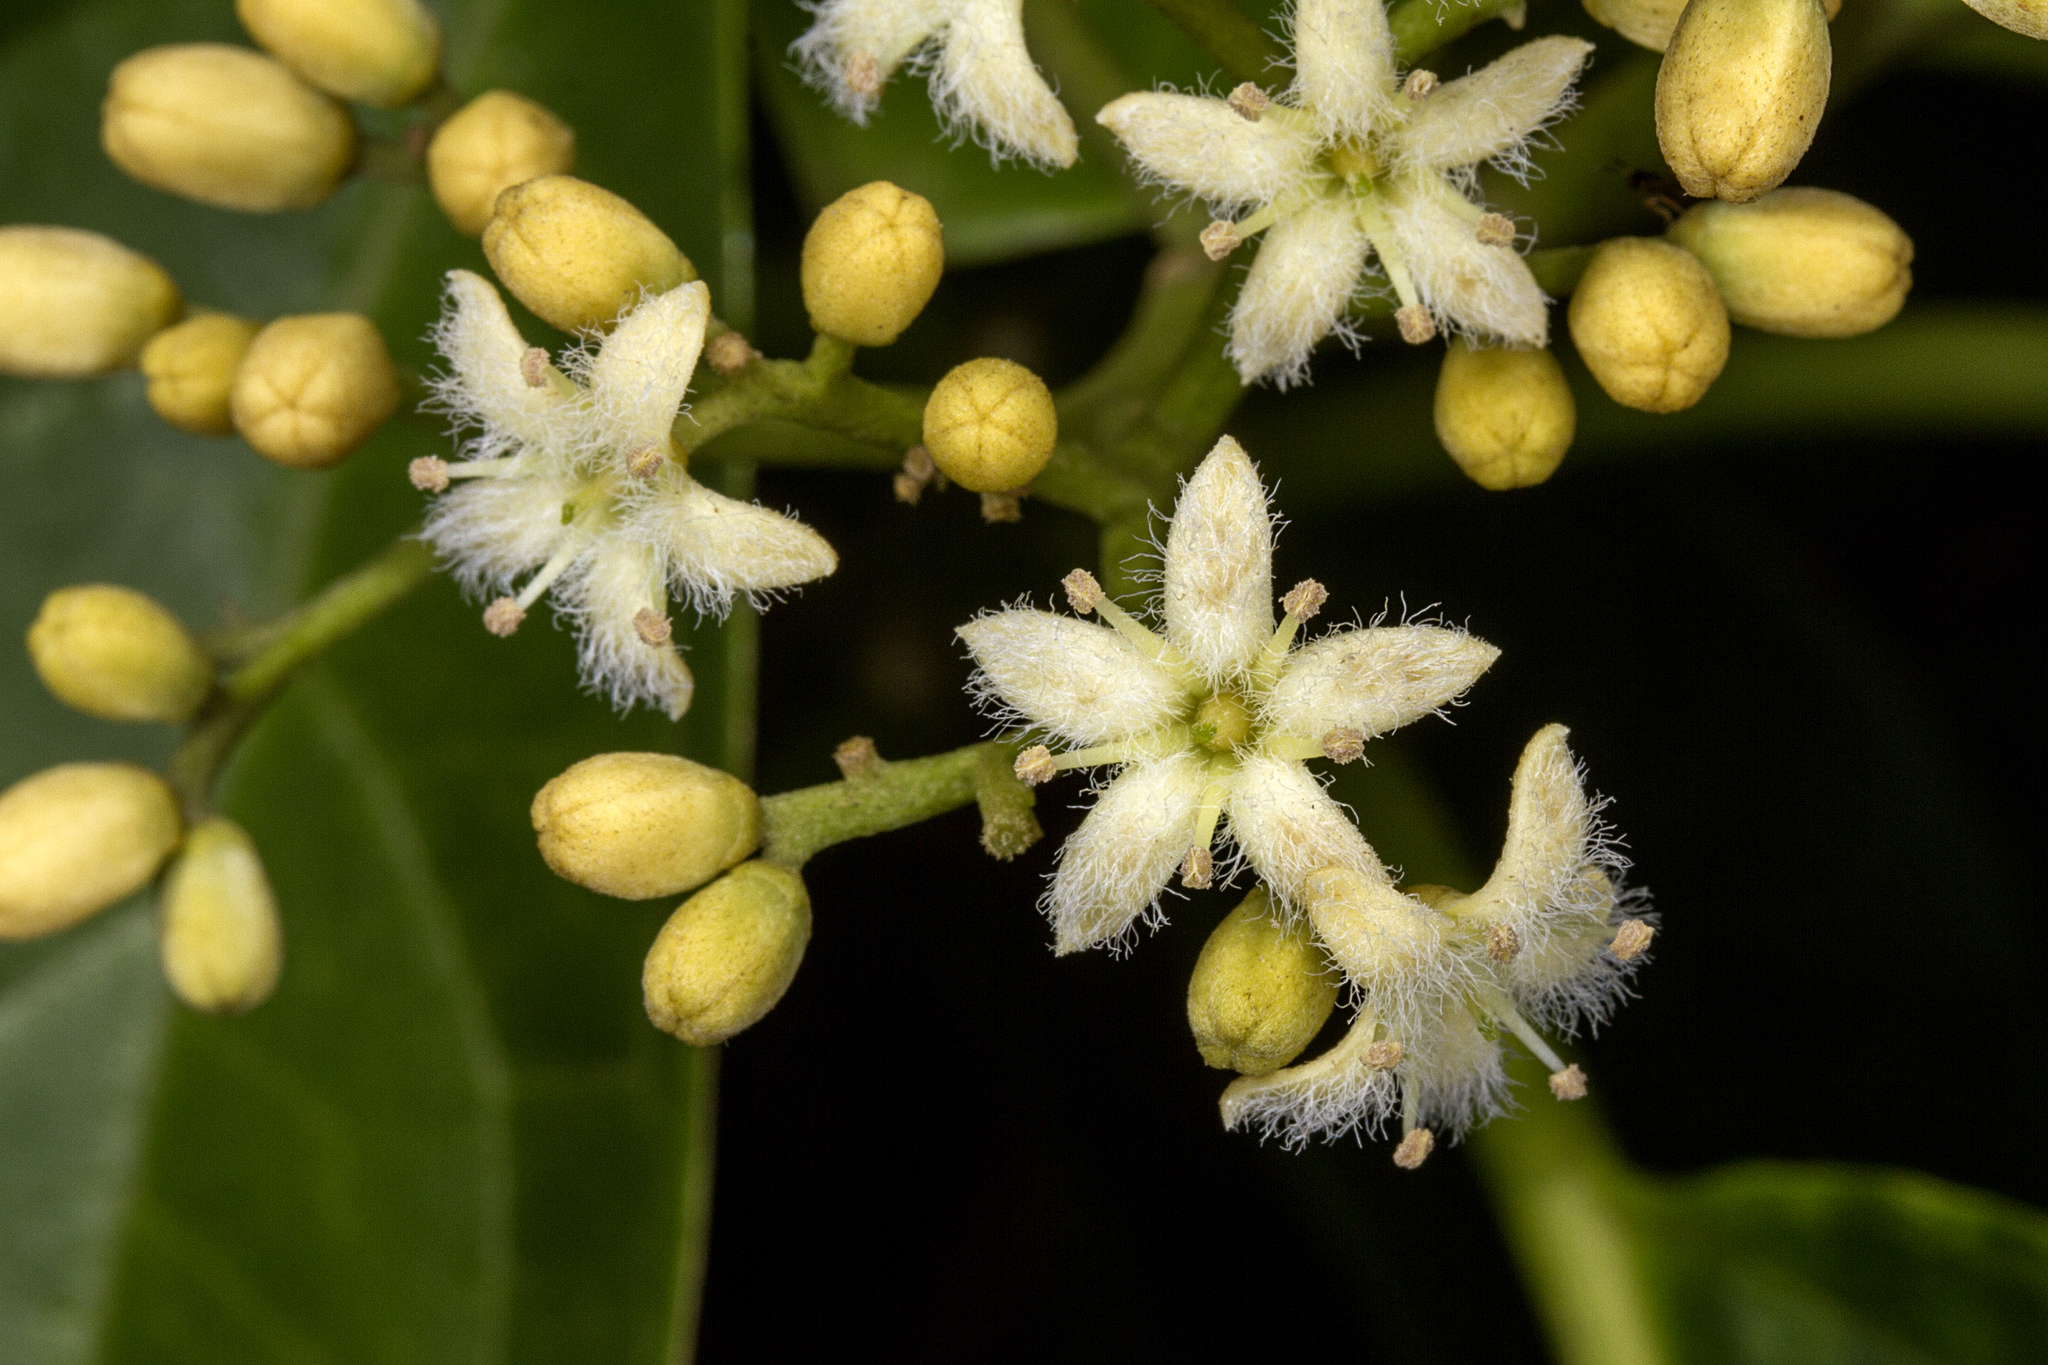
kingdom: Plantae
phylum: Tracheophyta
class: Magnoliopsida
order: Icacinales
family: Icacinaceae
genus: Nothapodytes
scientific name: Nothapodytes nimmoniana
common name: Nothapodytes
